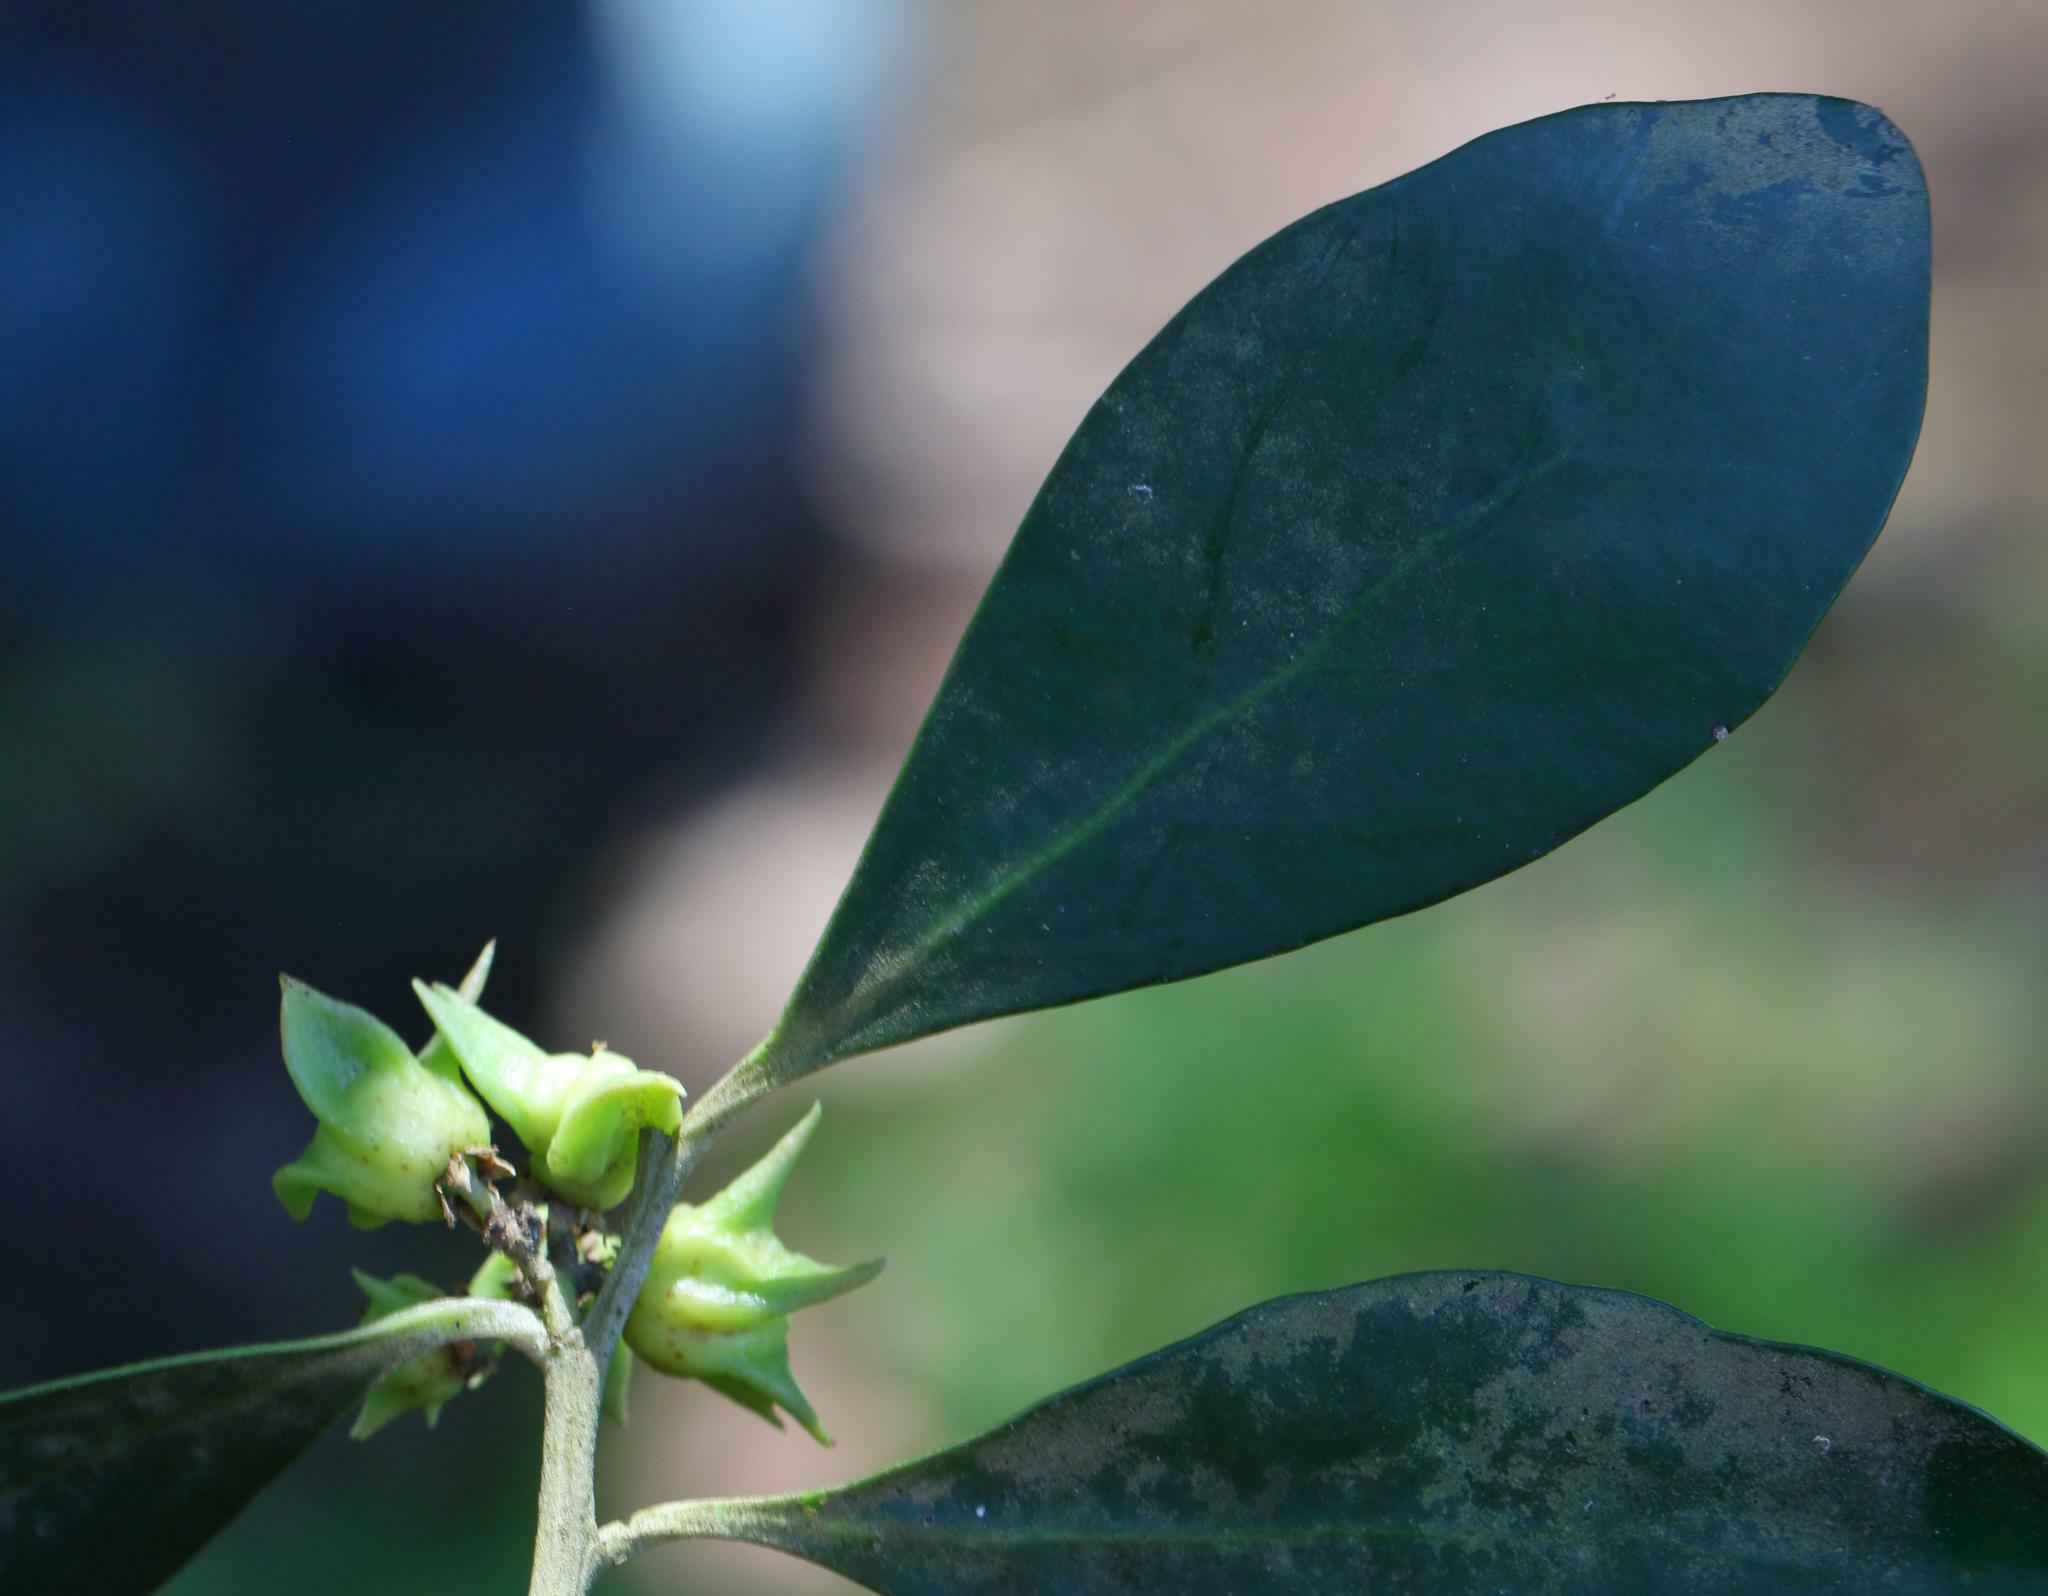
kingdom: Plantae
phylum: Tracheophyta
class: Magnoliopsida
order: Celastrales
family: Celastraceae
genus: Pterocelastrus
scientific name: Pterocelastrus tricuspidatus
